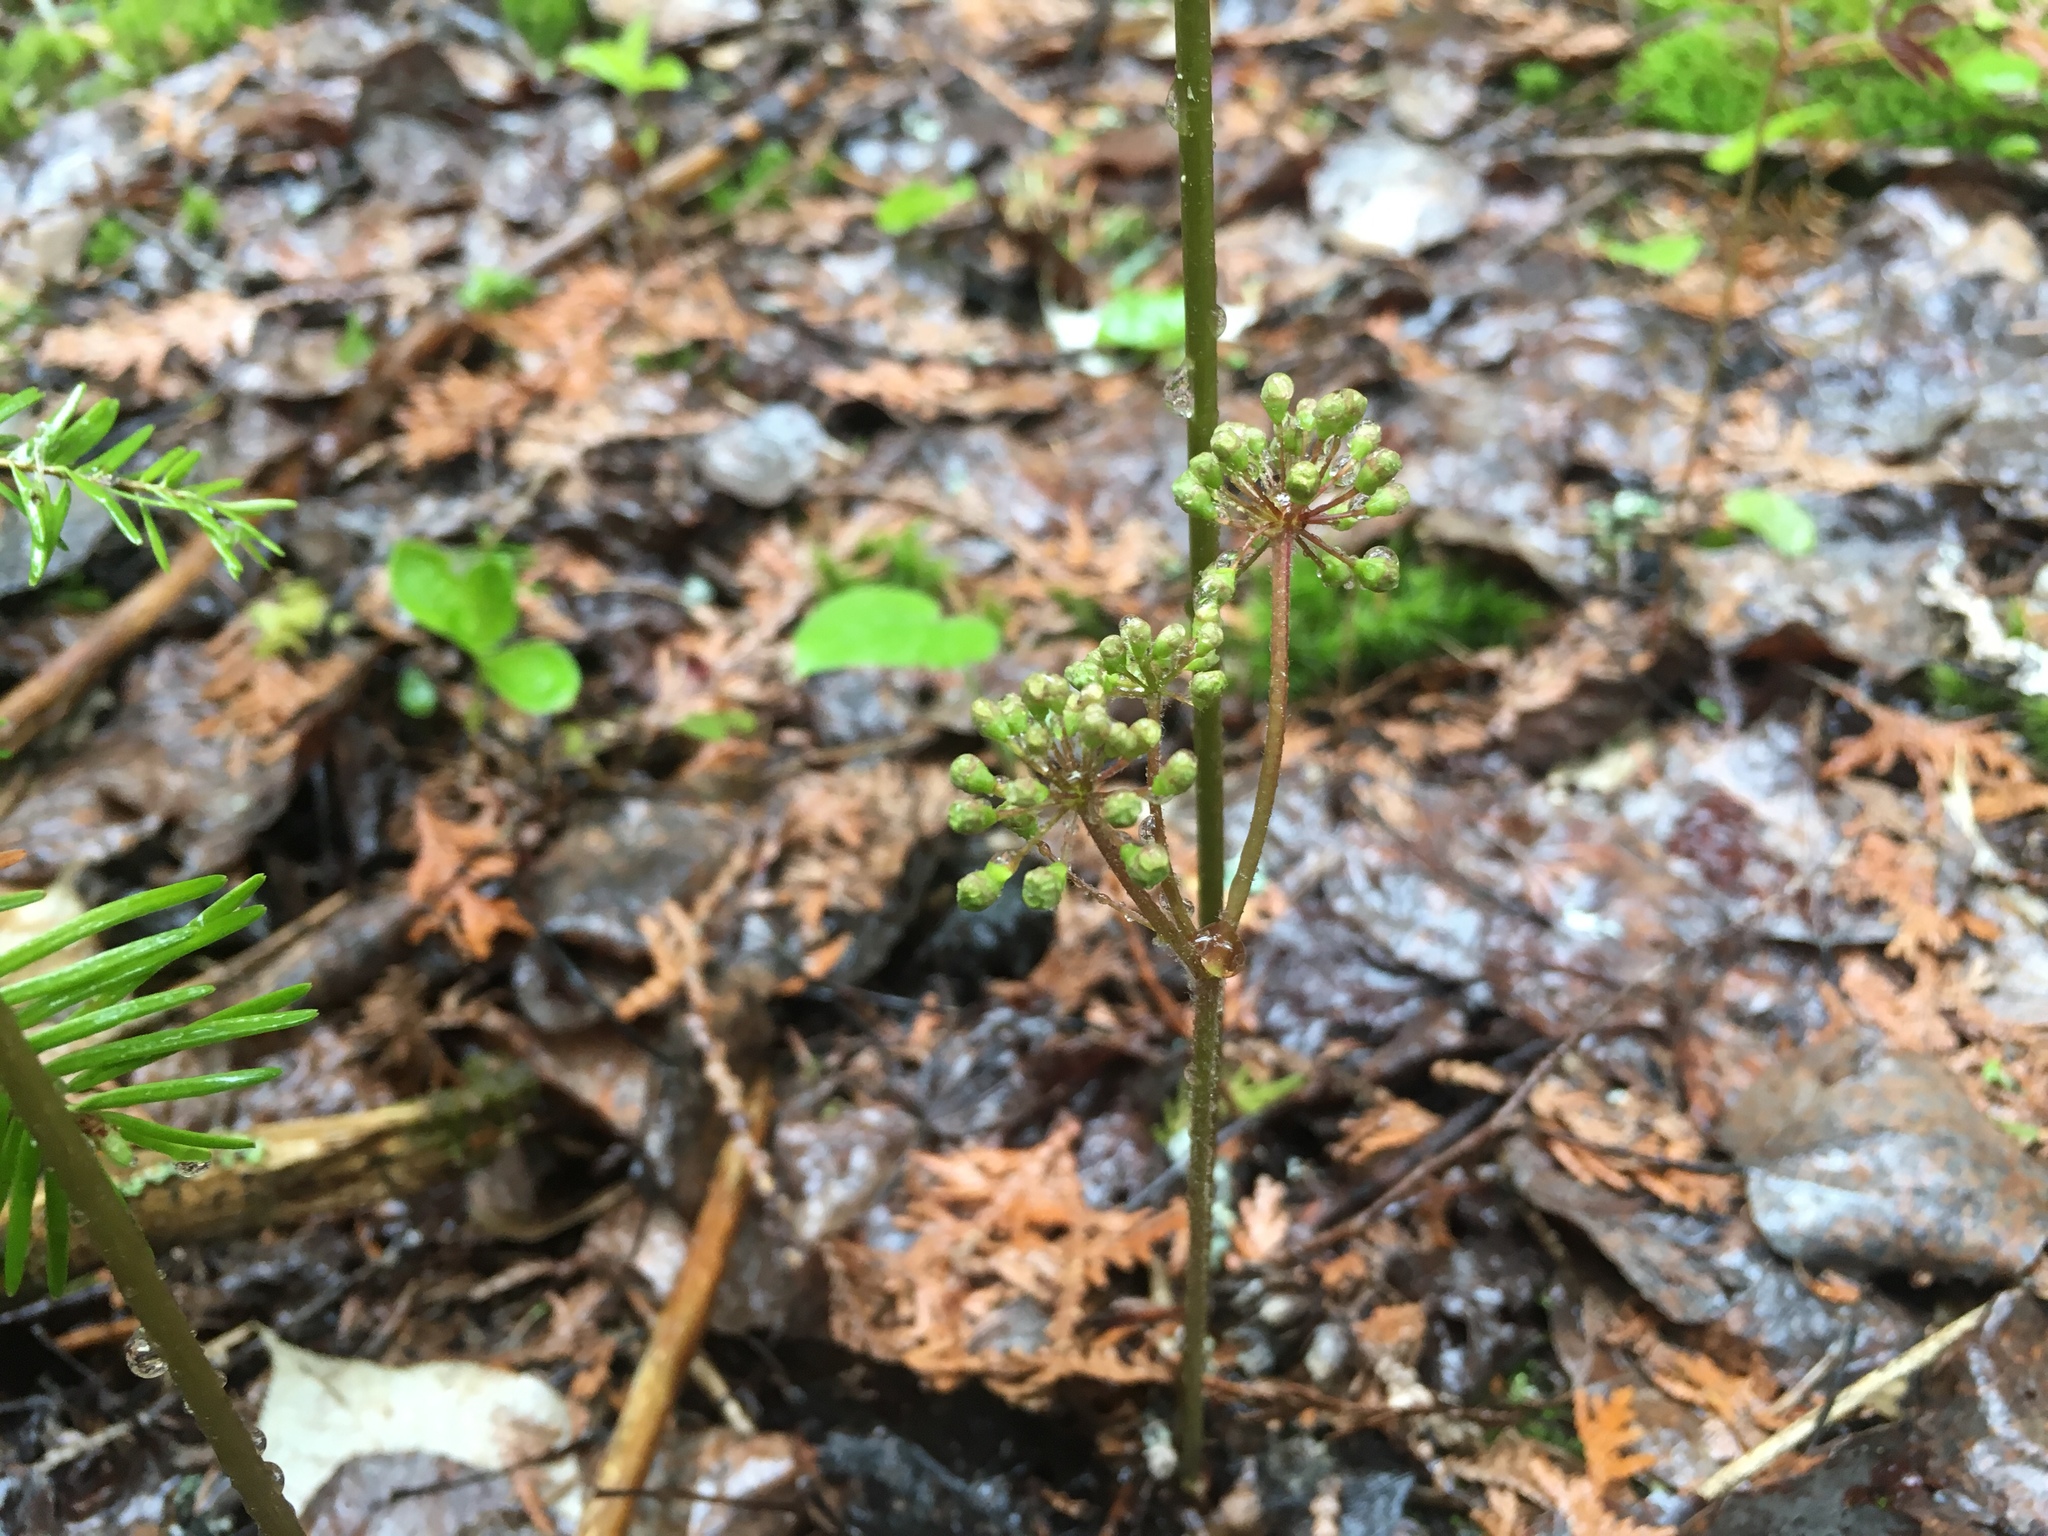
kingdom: Plantae
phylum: Tracheophyta
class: Magnoliopsida
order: Apiales
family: Araliaceae
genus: Aralia
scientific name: Aralia nudicaulis
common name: Wild sarsaparilla
